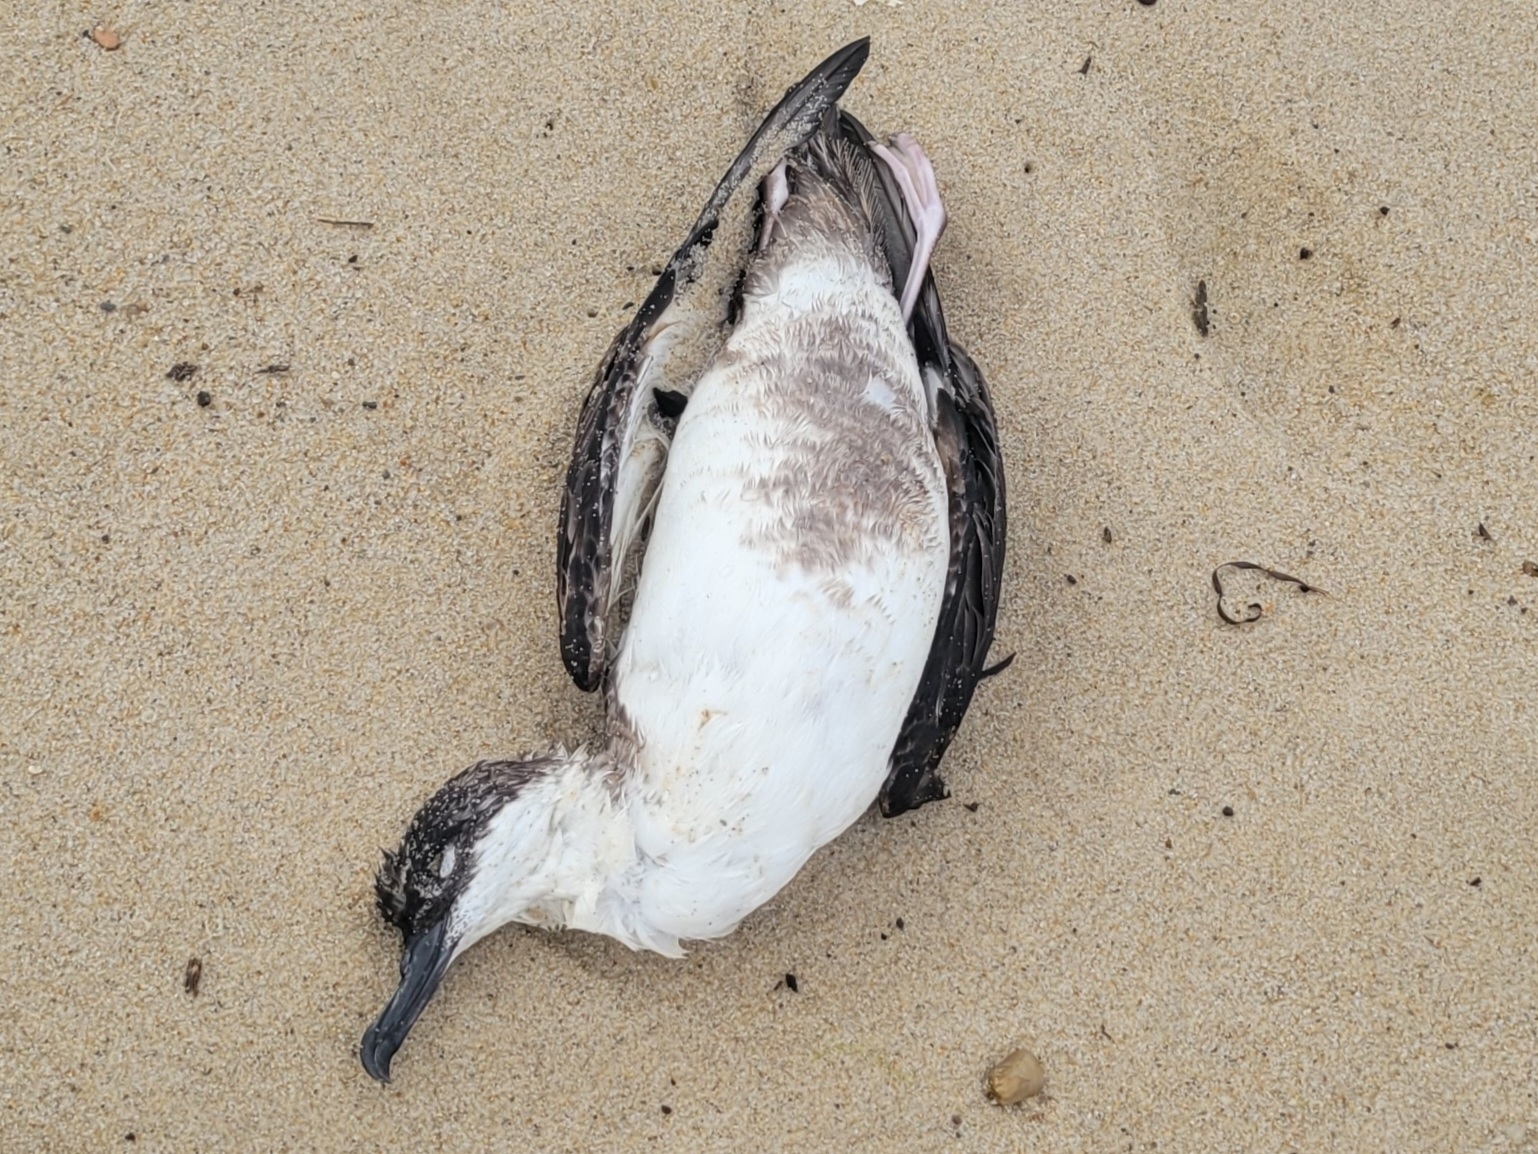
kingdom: Animalia
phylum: Chordata
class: Aves
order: Procellariiformes
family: Procellariidae
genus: Puffinus
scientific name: Puffinus gravis
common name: Great shearwater
